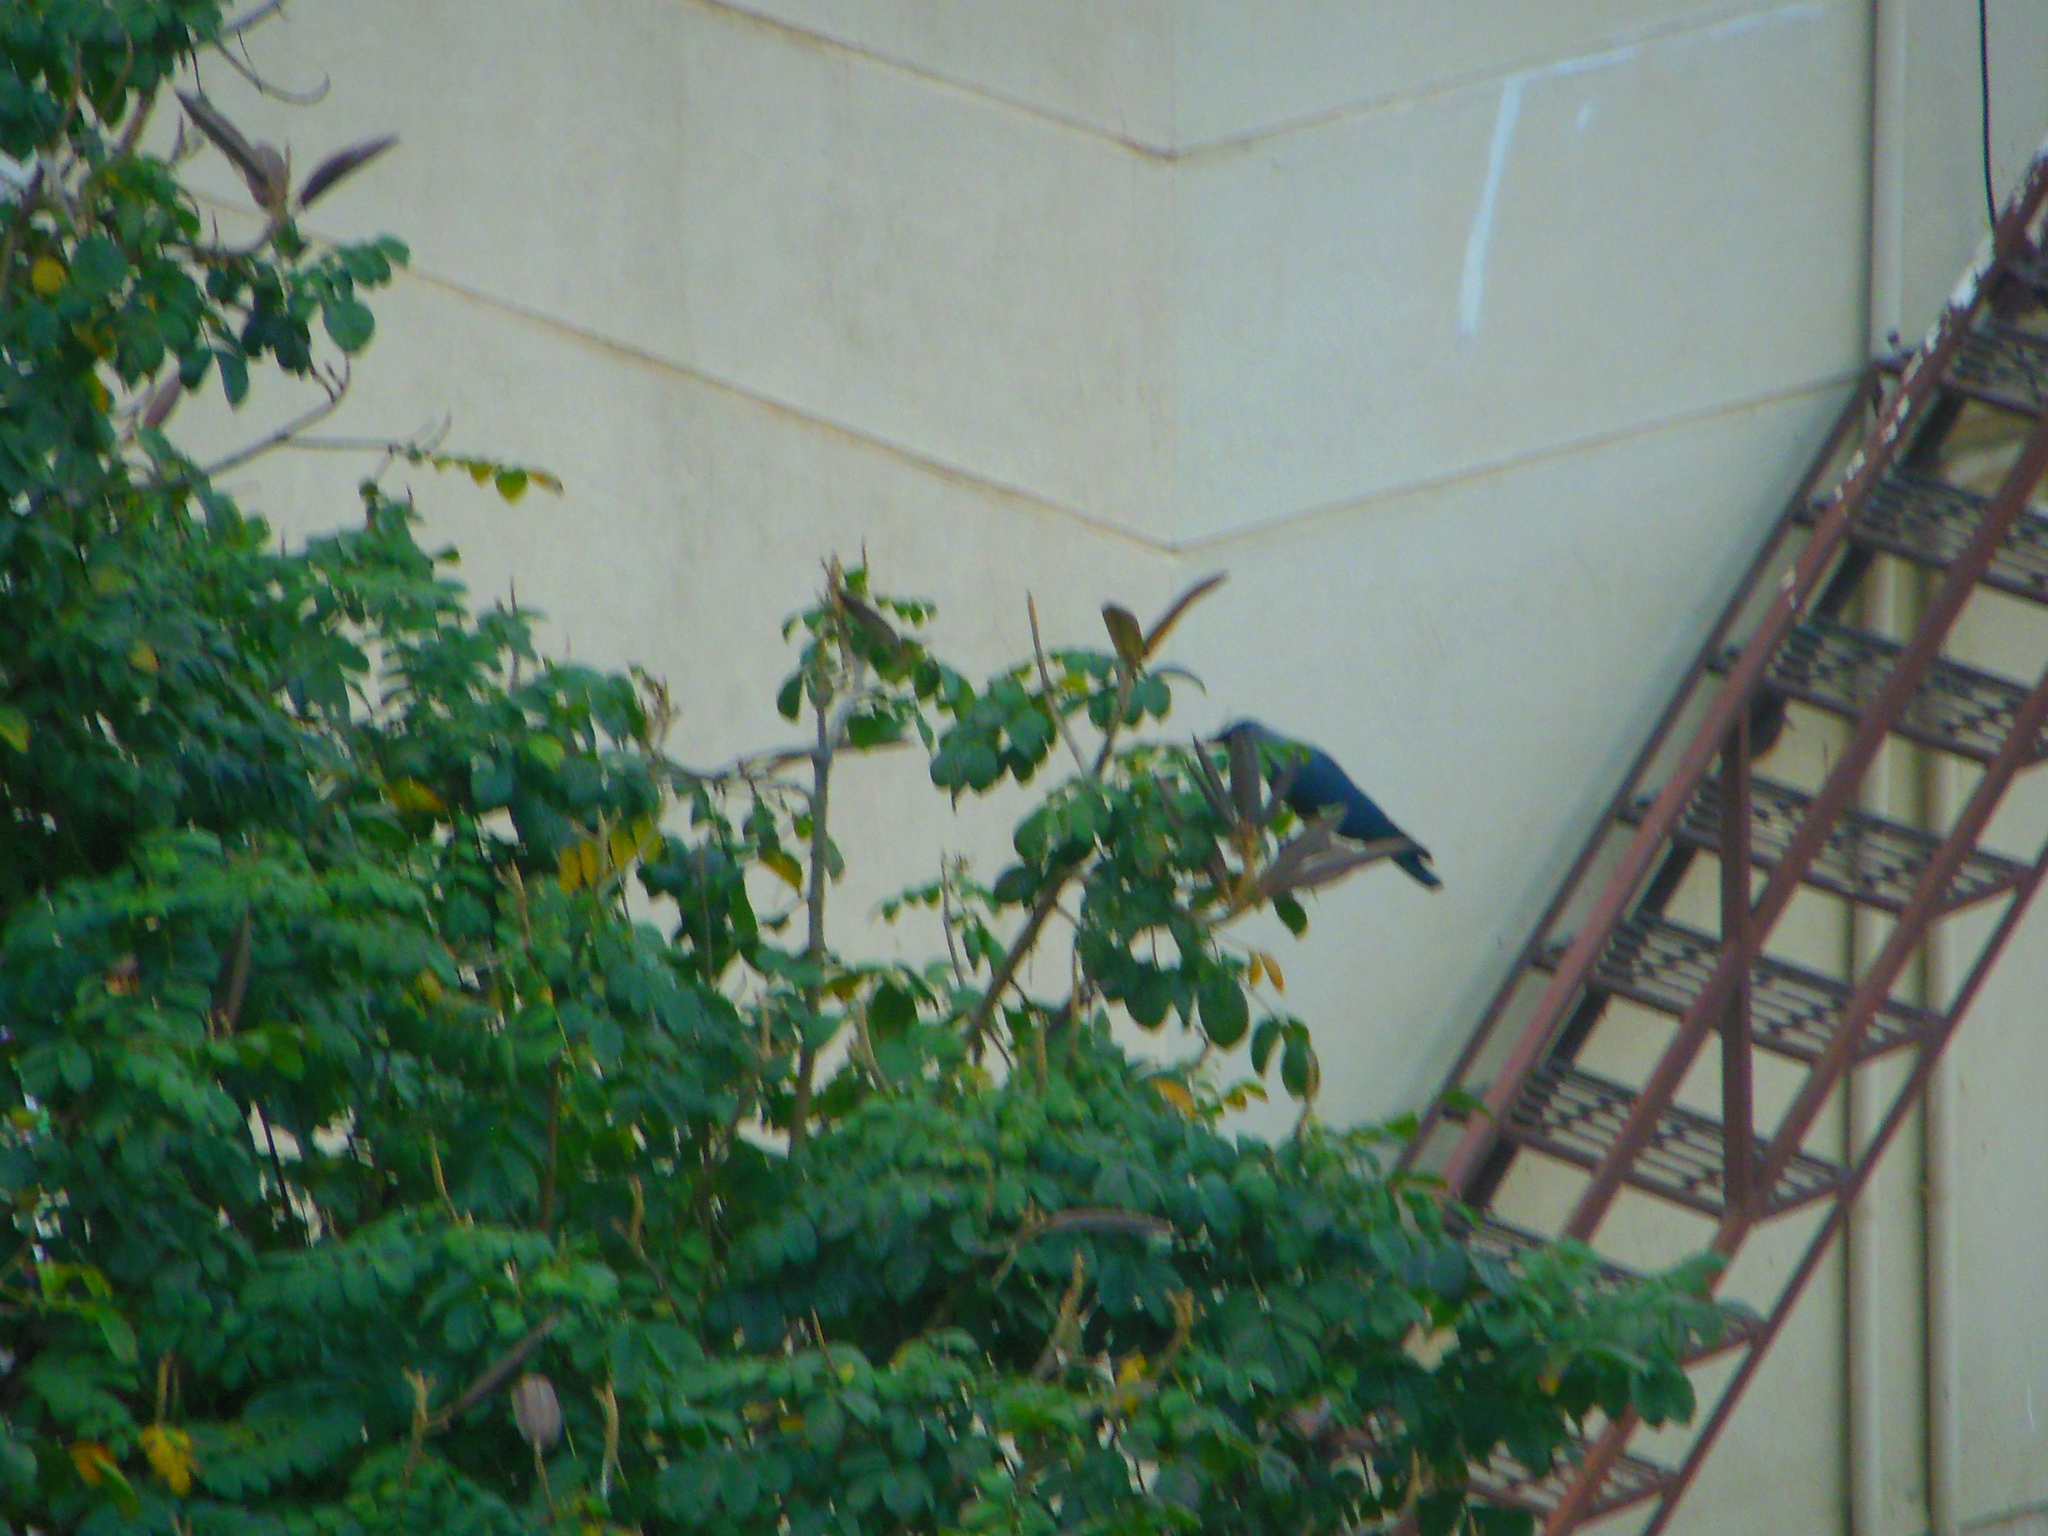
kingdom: Animalia
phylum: Chordata
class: Aves
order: Passeriformes
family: Corvidae
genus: Corvus
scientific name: Corvus splendens
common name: House crow
